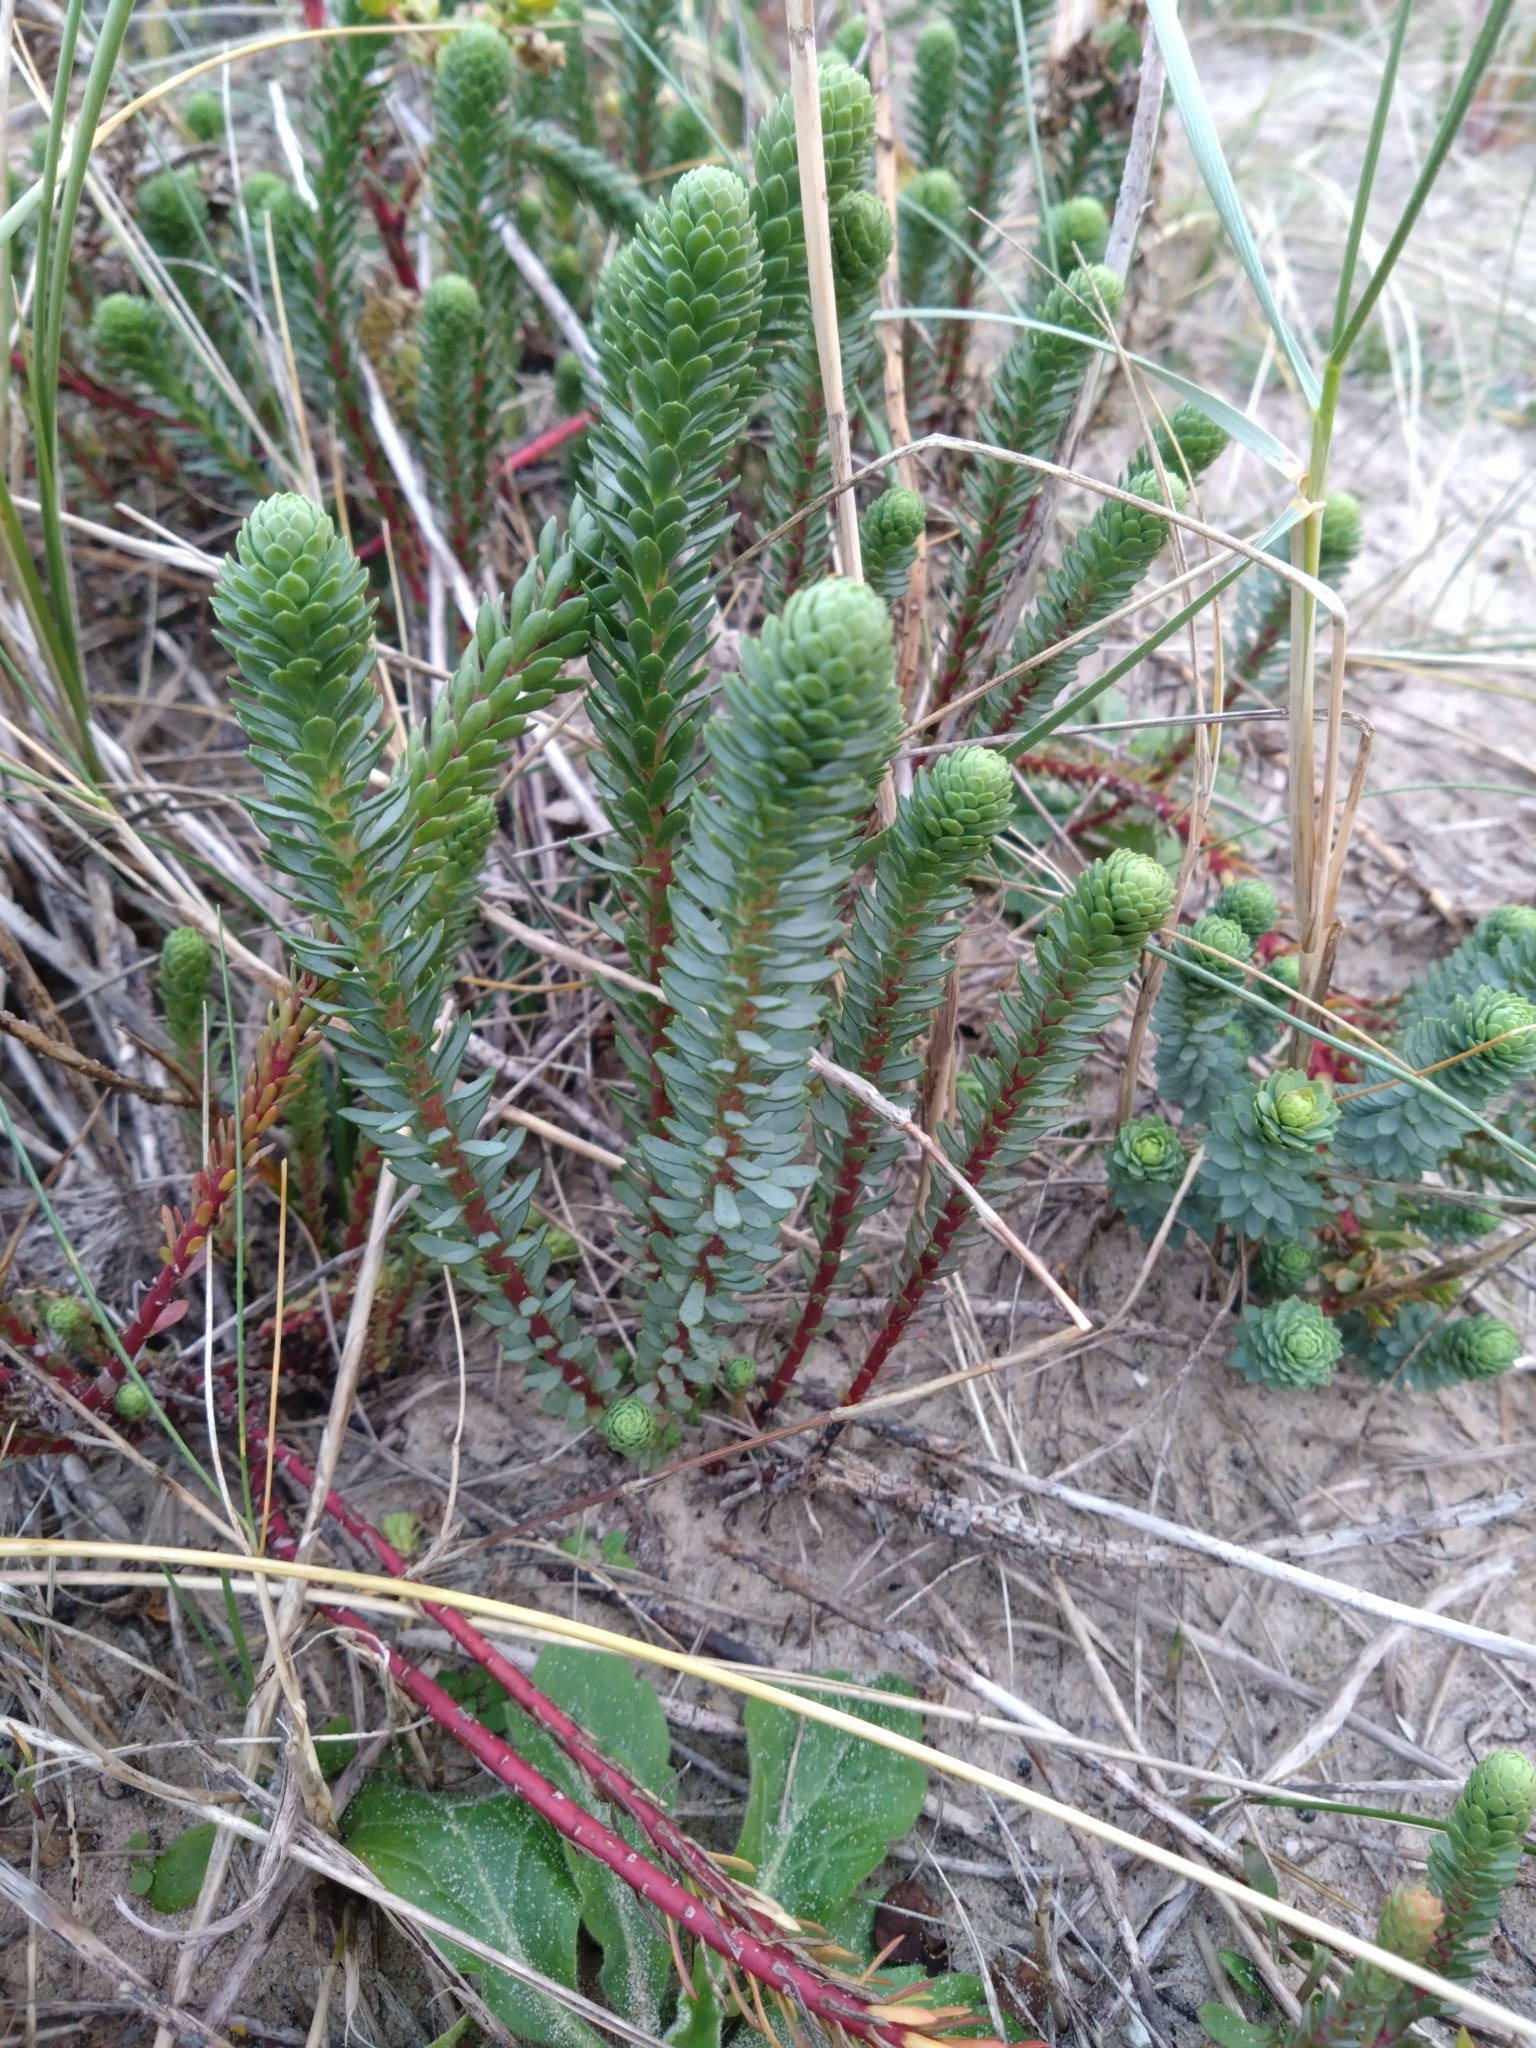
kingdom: Plantae
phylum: Tracheophyta
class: Magnoliopsida
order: Malpighiales
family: Euphorbiaceae
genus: Euphorbia
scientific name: Euphorbia paralias
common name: Sea spurge
